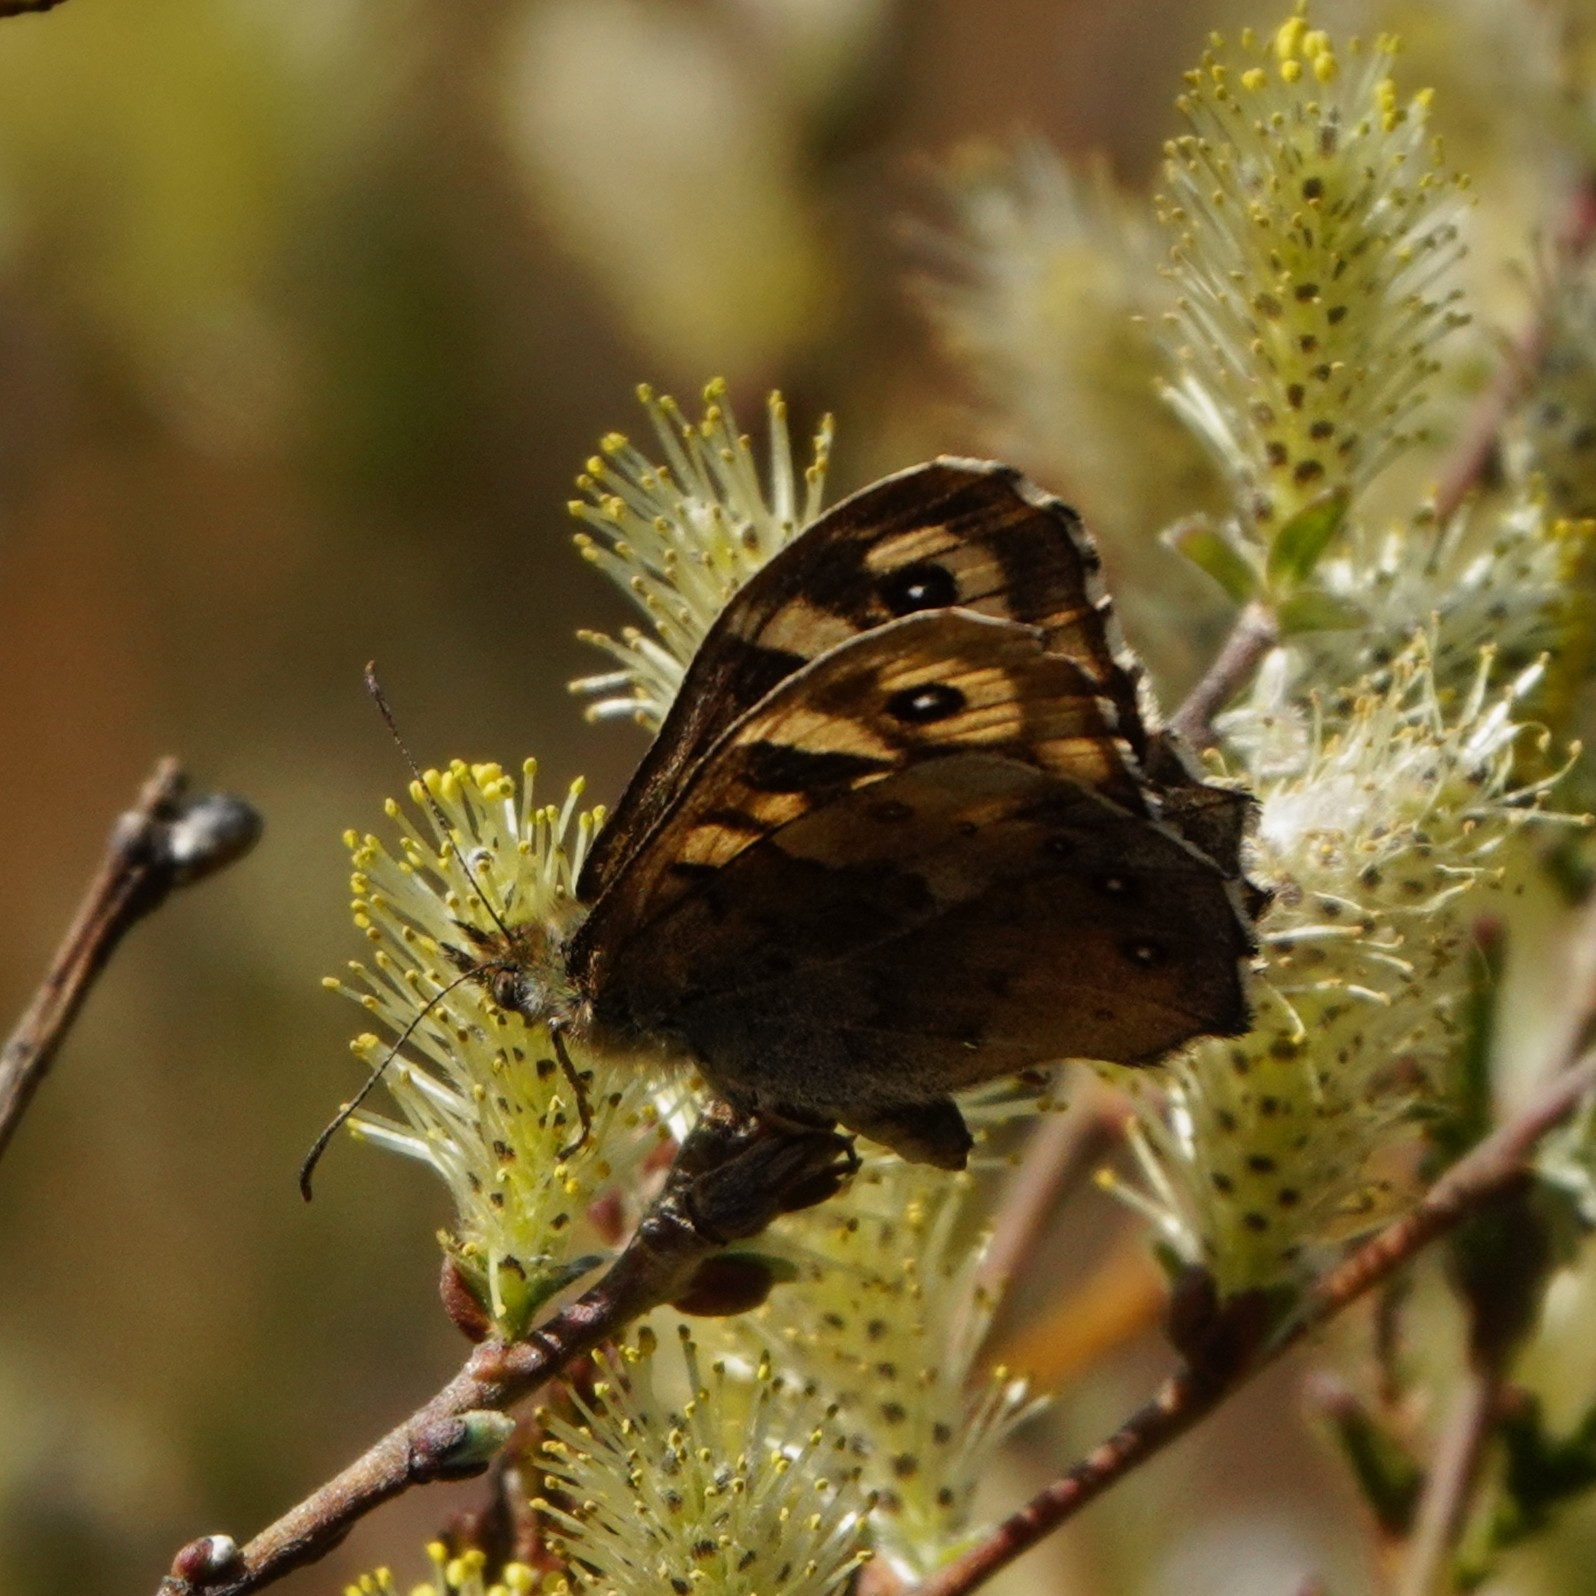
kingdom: Animalia
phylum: Arthropoda
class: Insecta
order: Lepidoptera
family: Nymphalidae
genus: Pararge
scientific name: Pararge aegeria
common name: Speckled wood
